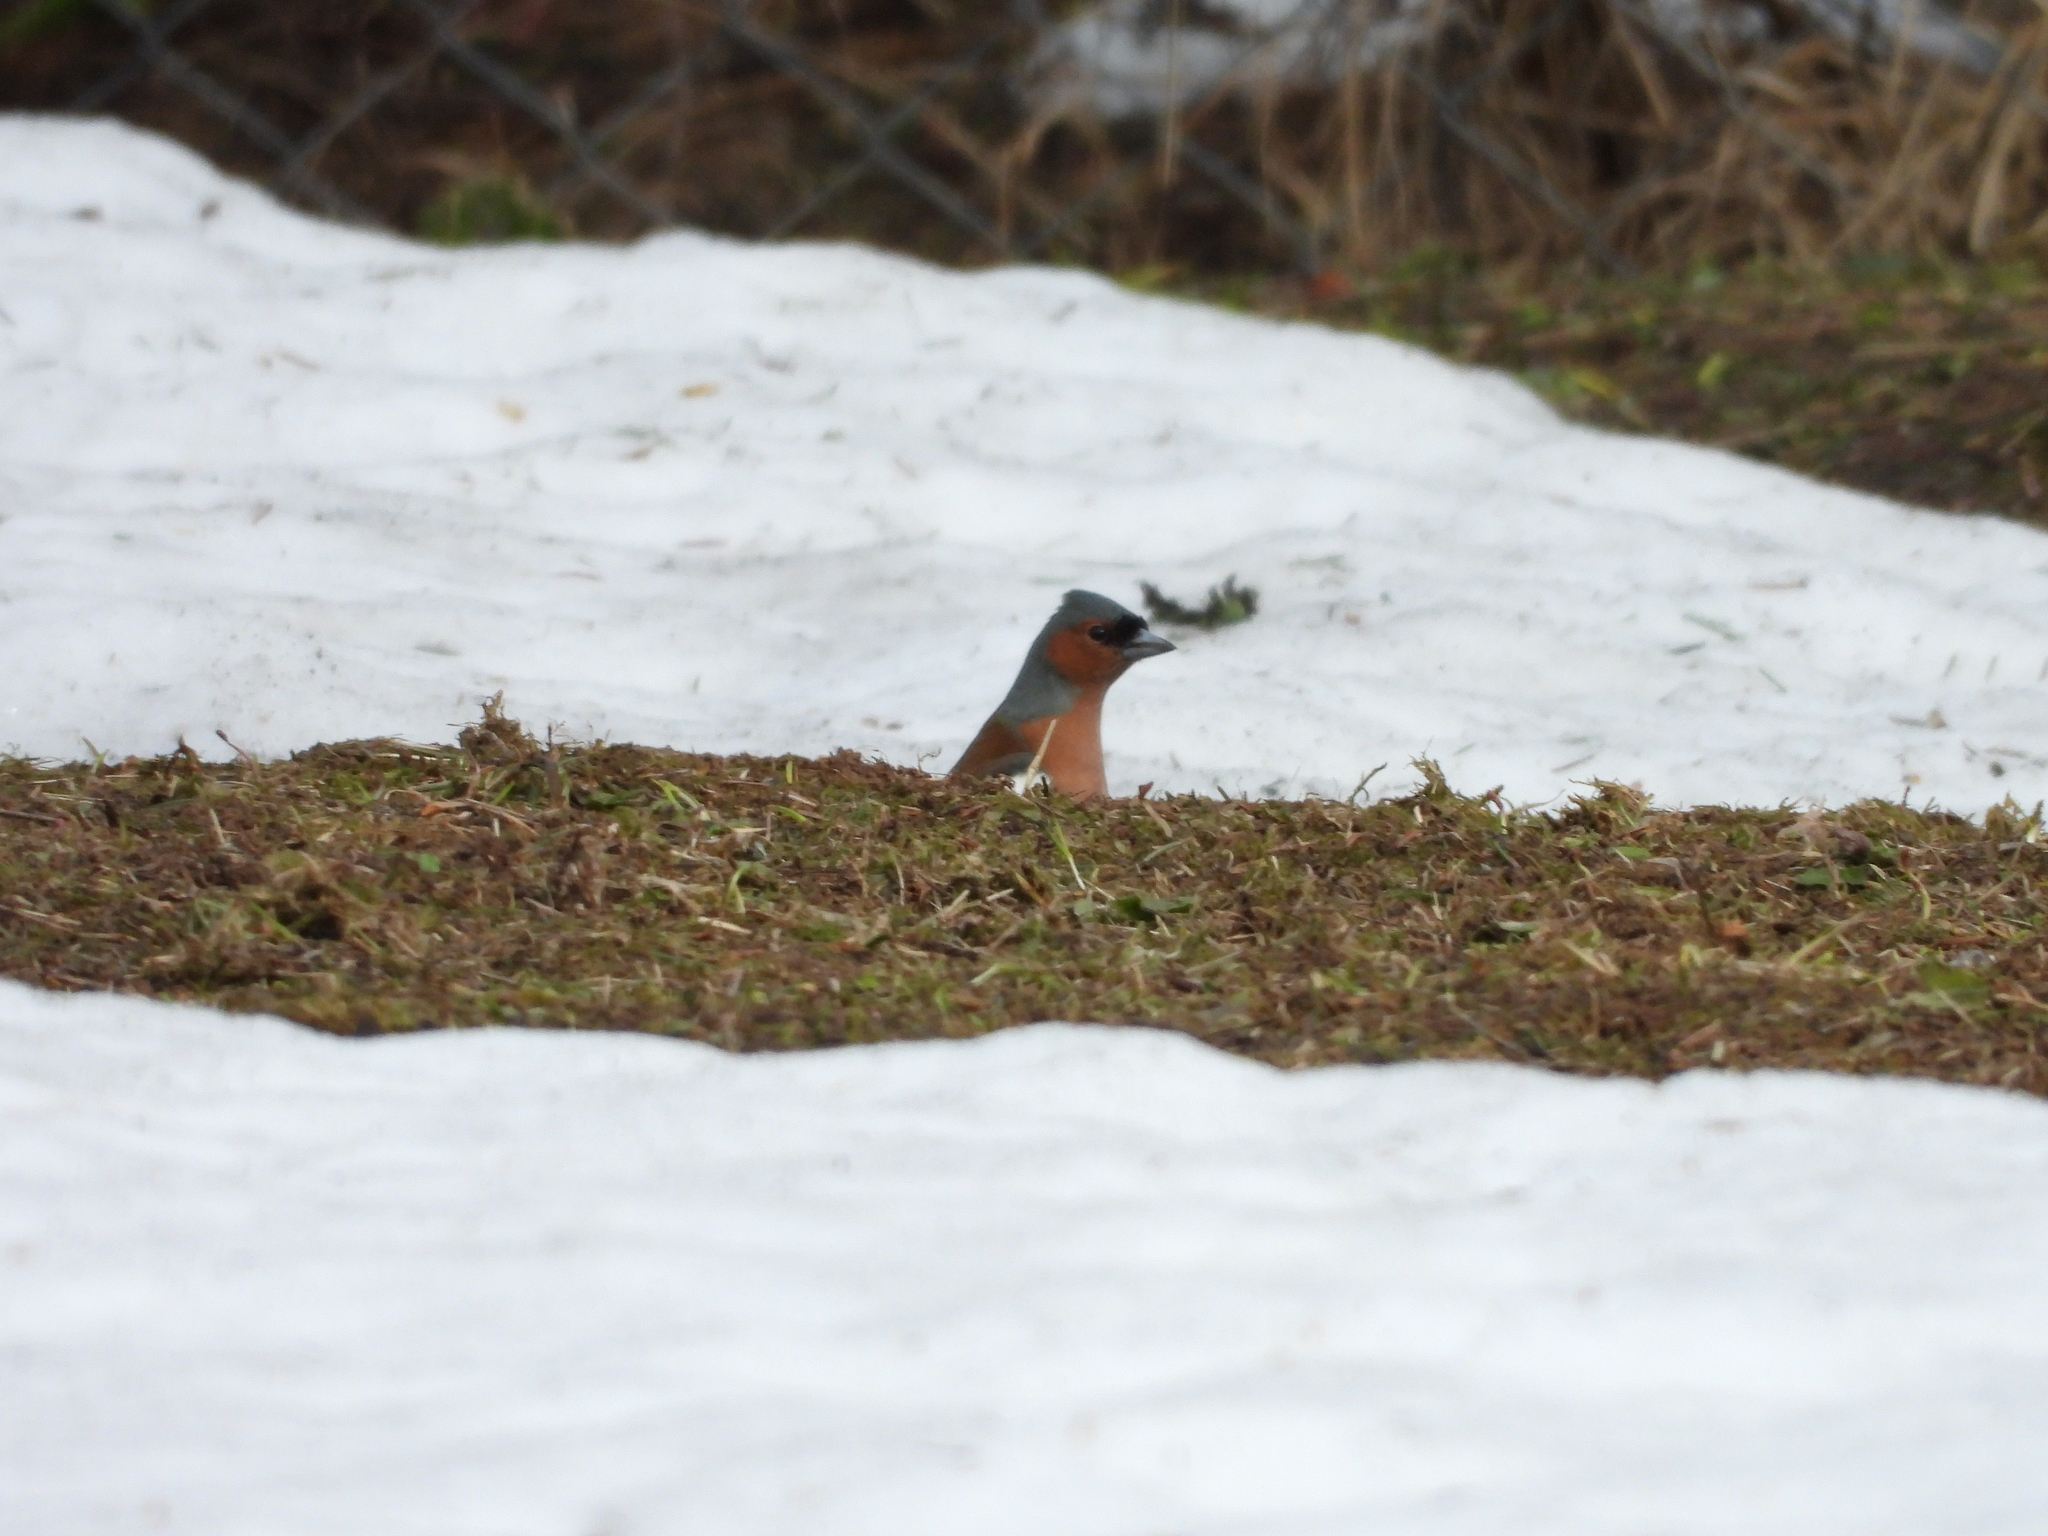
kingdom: Animalia
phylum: Chordata
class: Aves
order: Passeriformes
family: Fringillidae
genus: Fringilla
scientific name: Fringilla coelebs
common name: Common chaffinch
